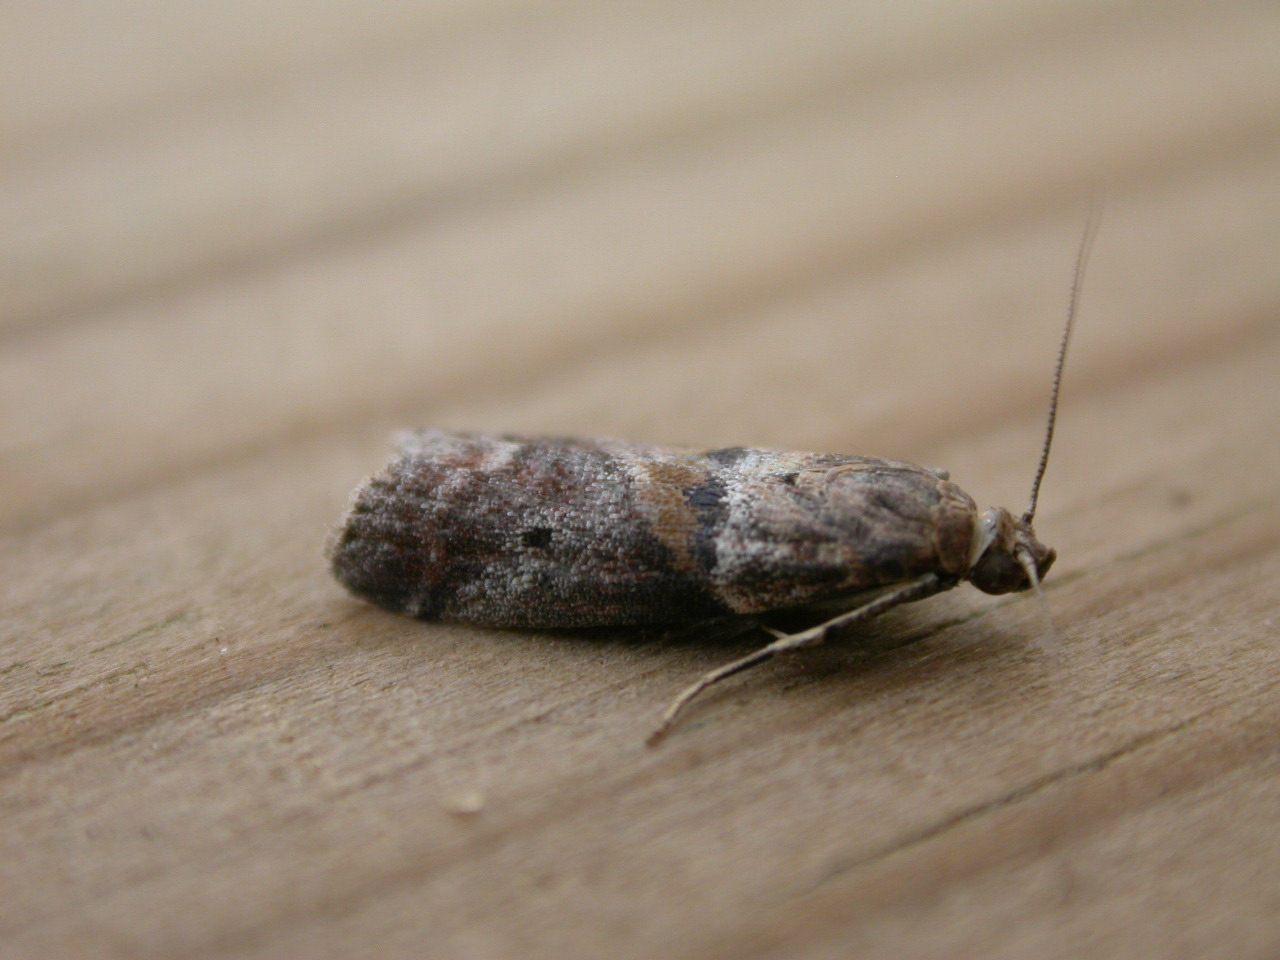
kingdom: Animalia
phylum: Arthropoda
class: Insecta
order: Lepidoptera
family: Pyralidae
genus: Acrobasis
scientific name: Acrobasis consociella
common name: Broad-barred knot-horn
